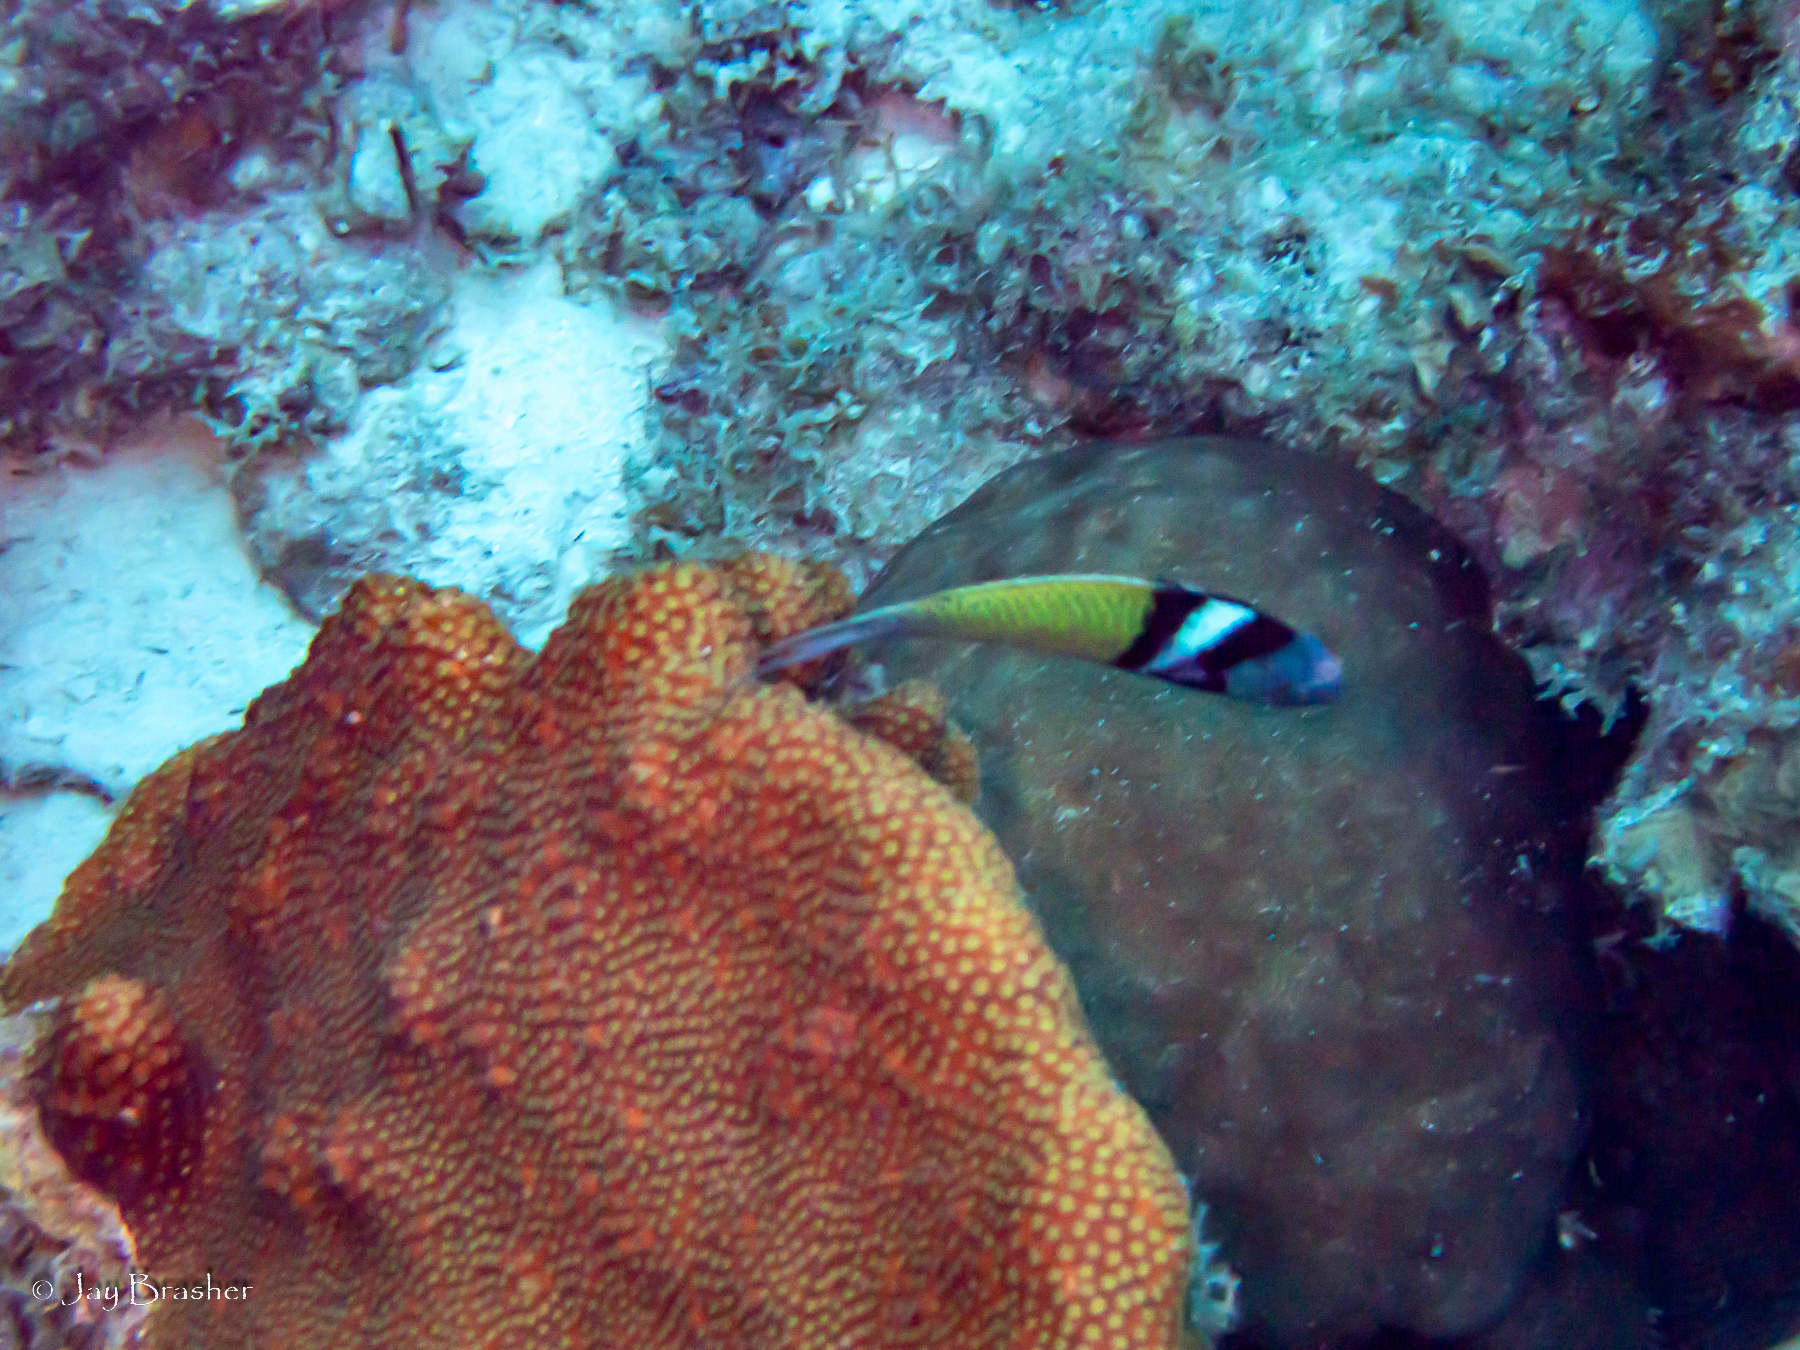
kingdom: Animalia
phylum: Chordata
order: Perciformes
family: Labridae
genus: Thalassoma
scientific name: Thalassoma bifasciatum
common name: Bluehead wrasse
